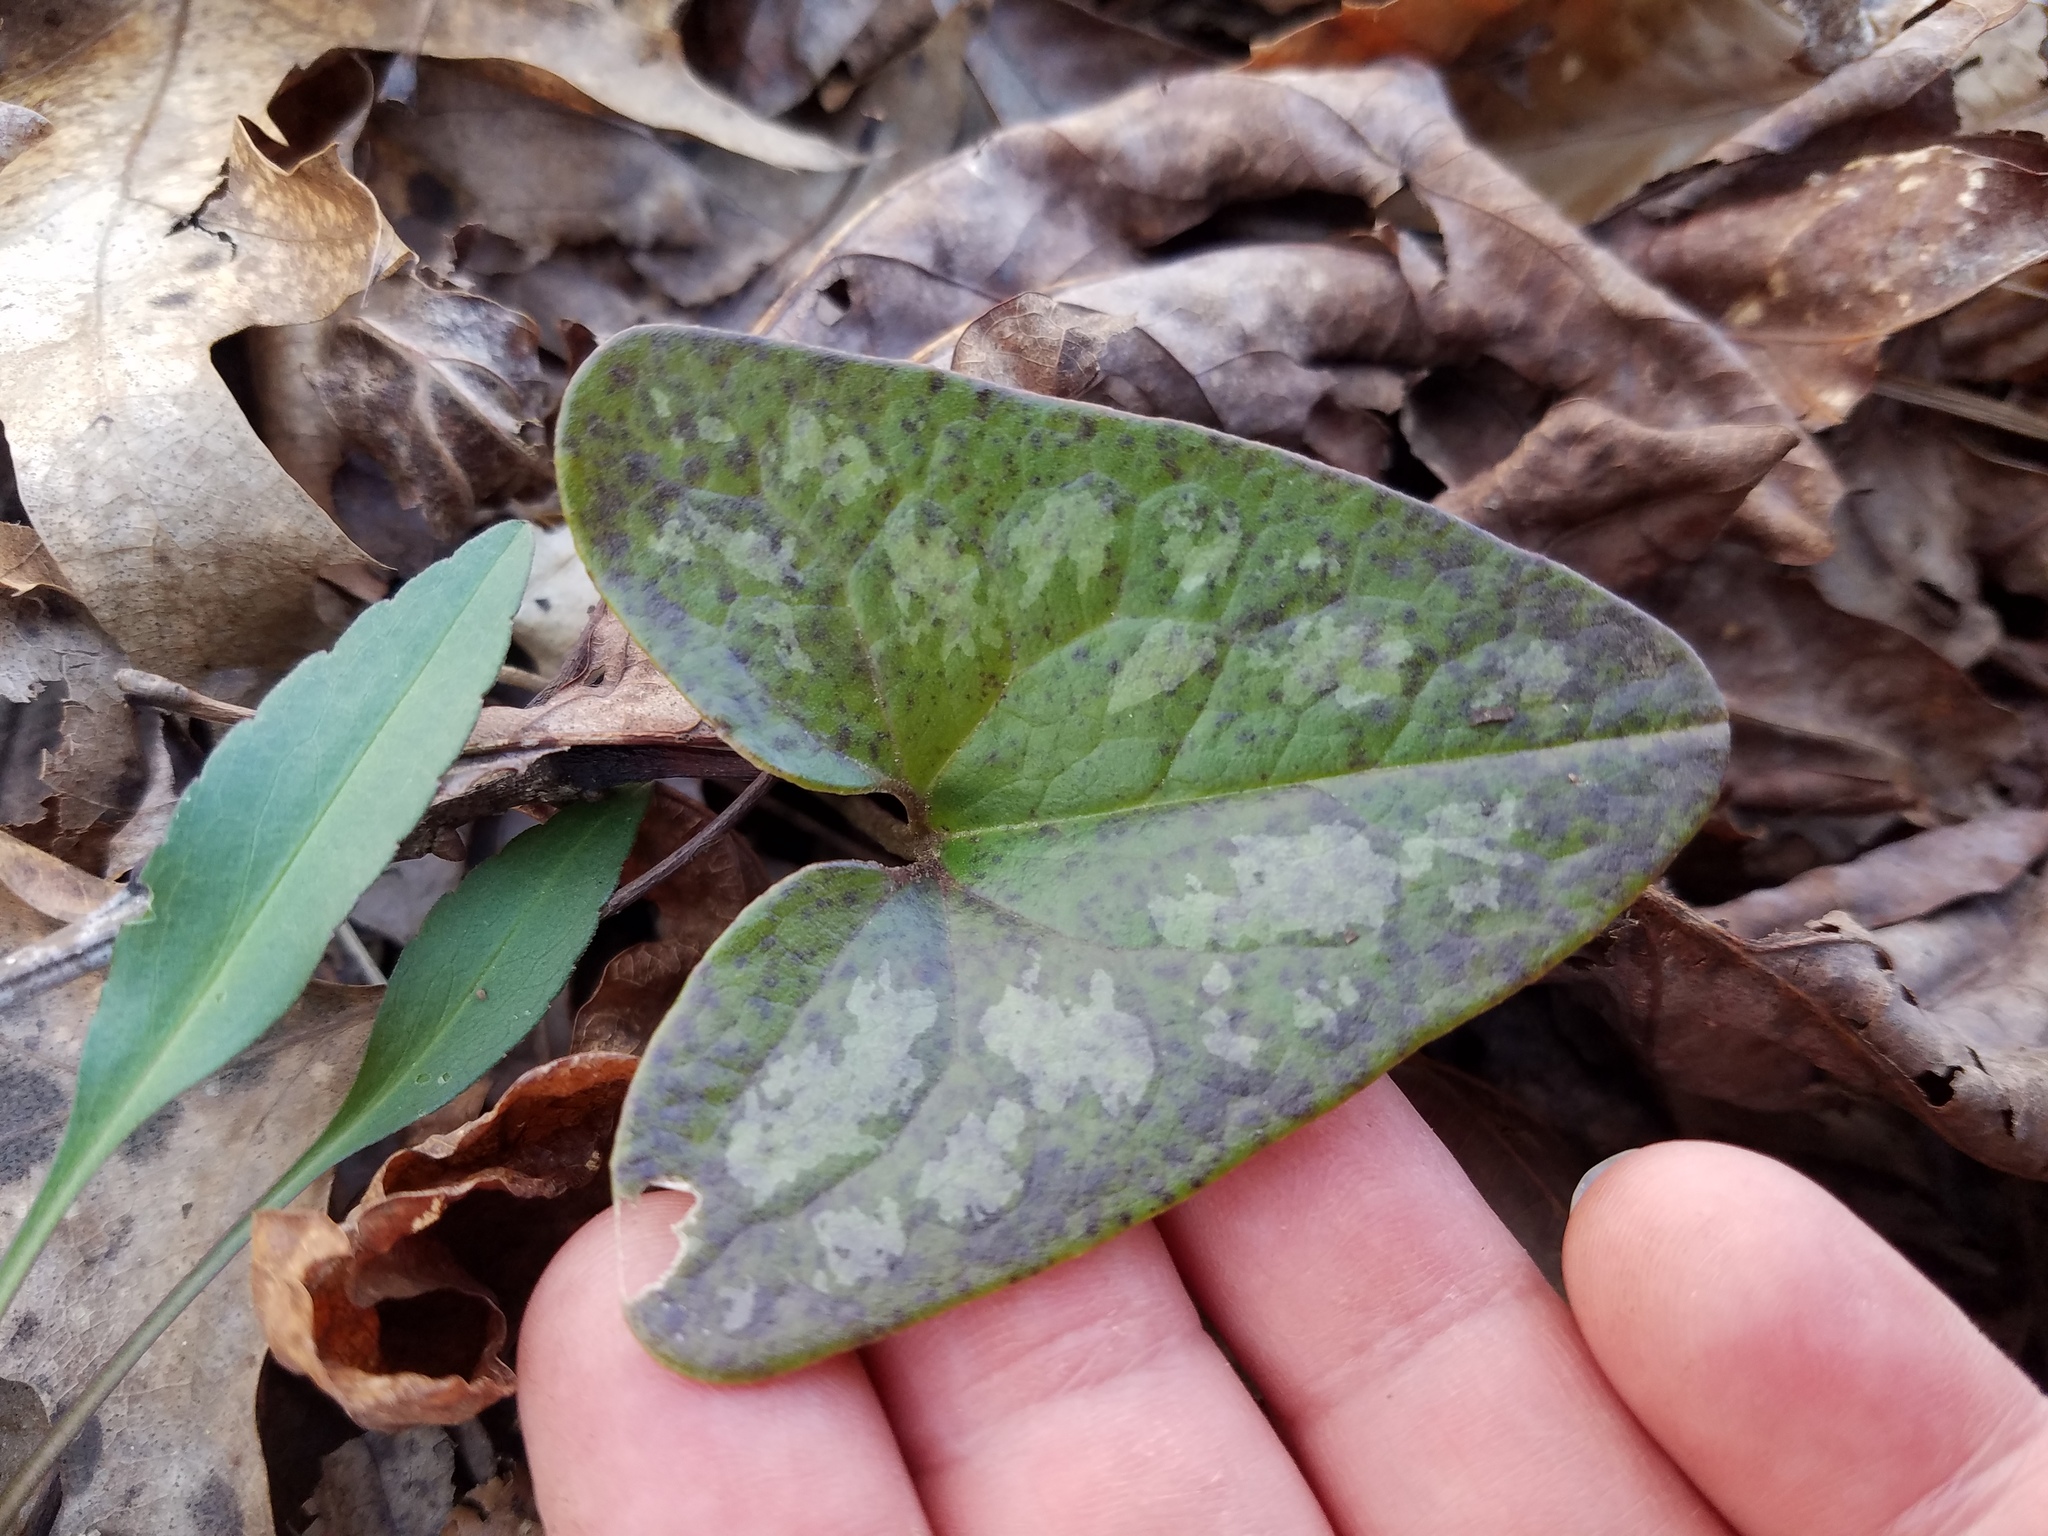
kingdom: Plantae
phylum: Tracheophyta
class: Magnoliopsida
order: Piperales
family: Aristolochiaceae
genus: Hexastylis
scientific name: Hexastylis arifolia
